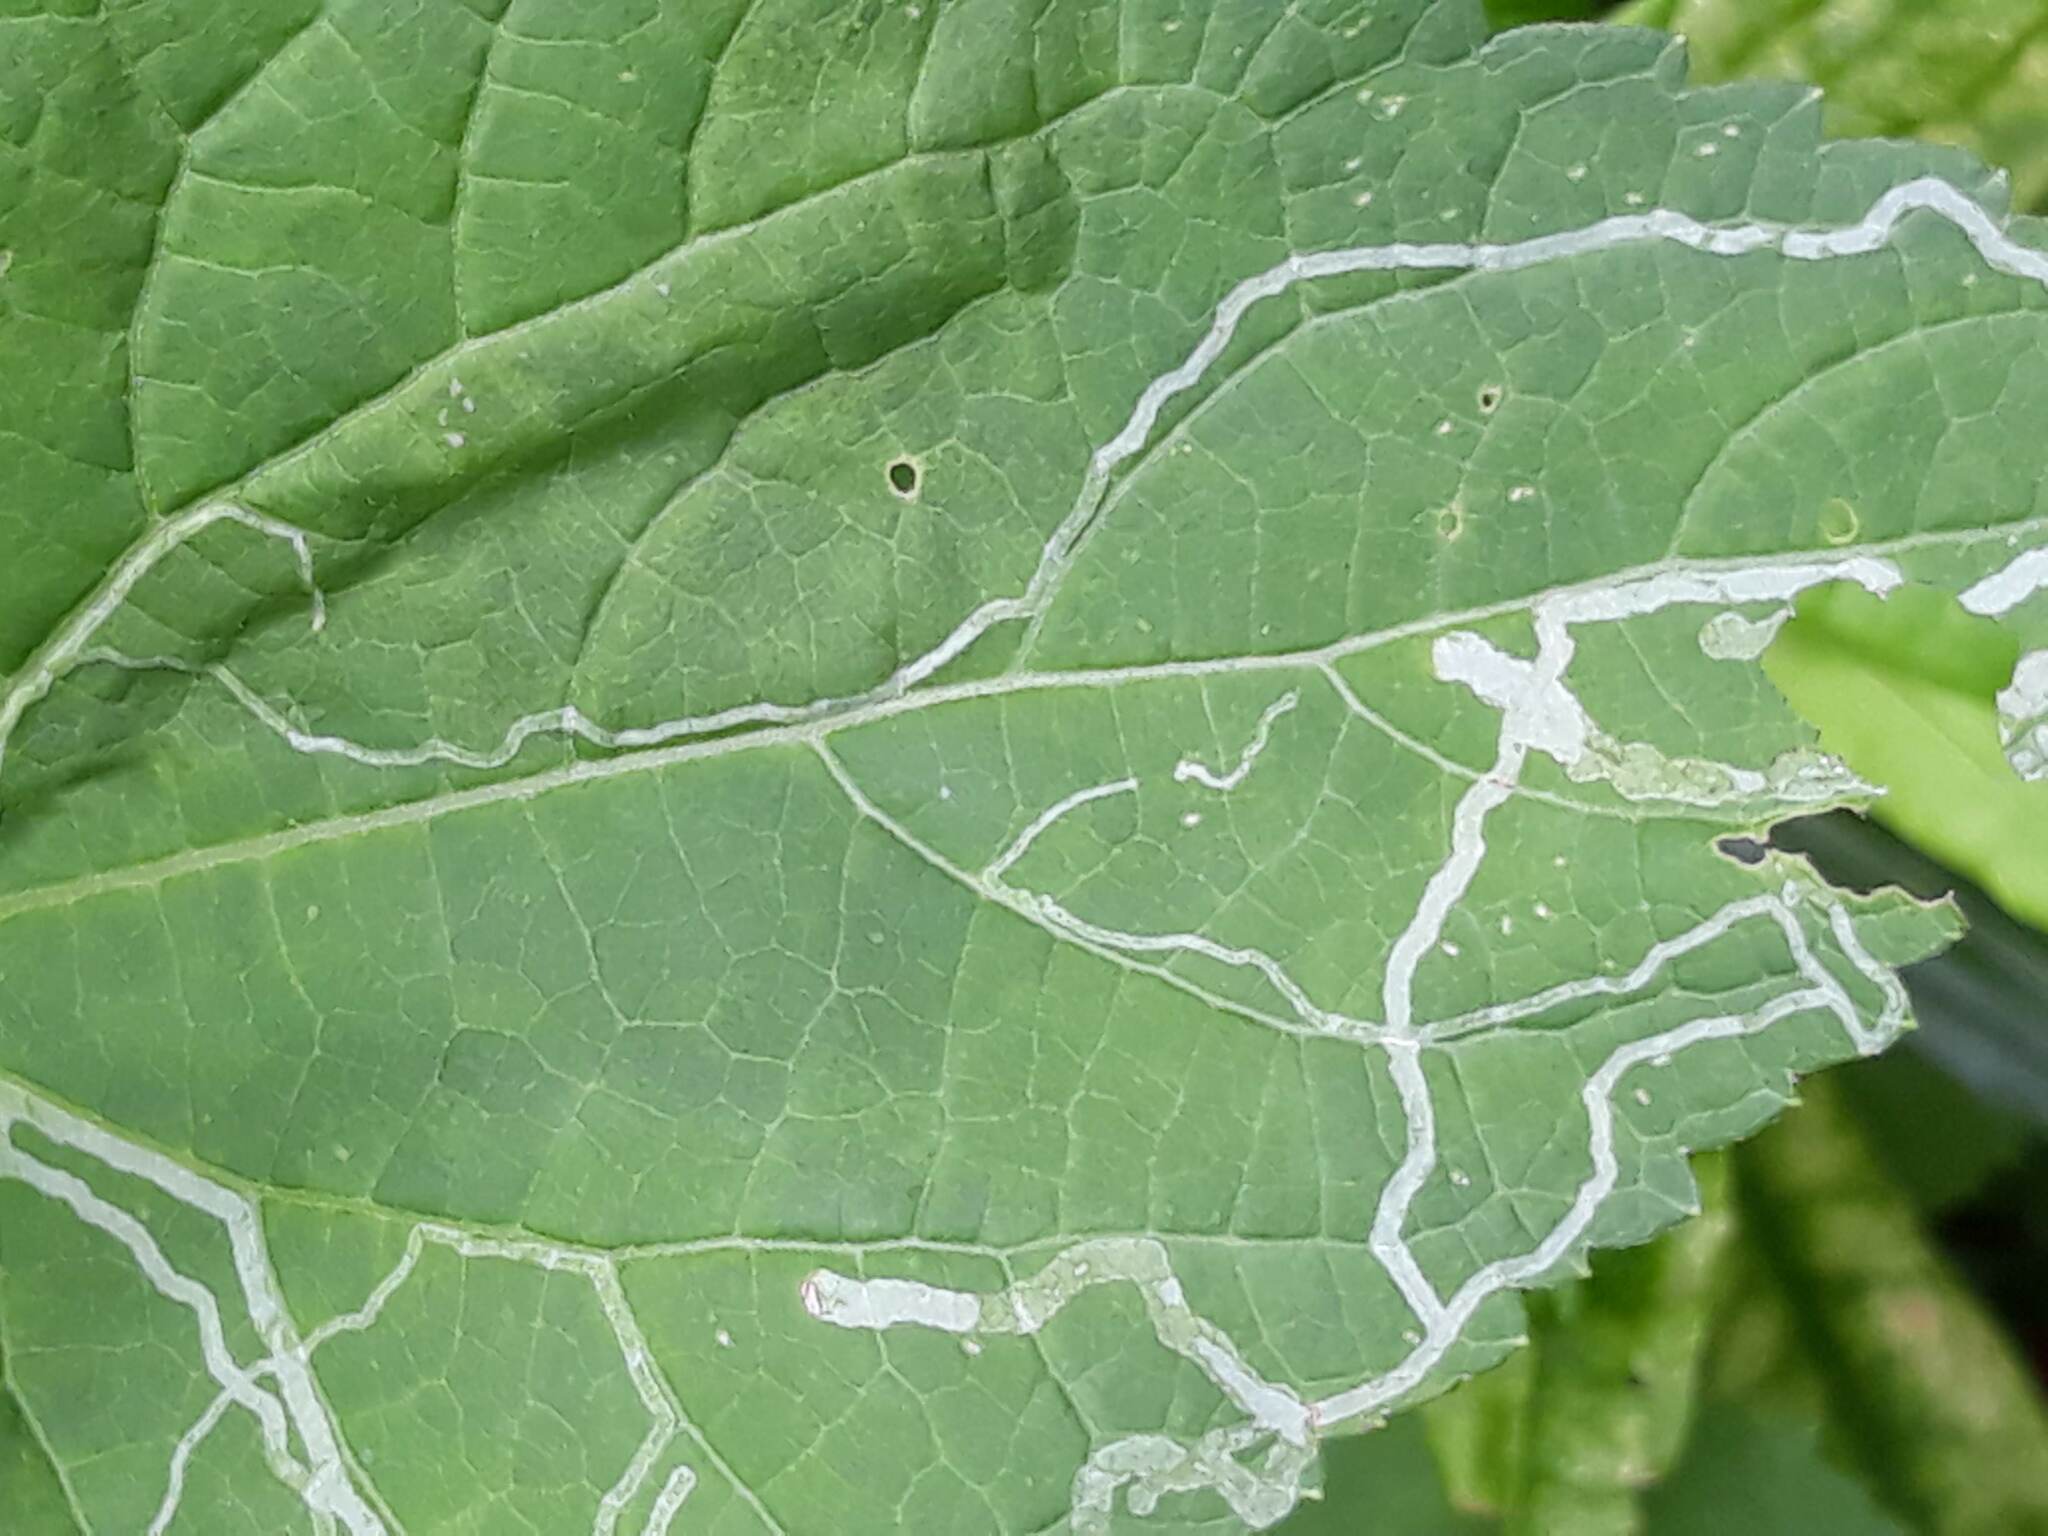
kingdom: Plantae
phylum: Tracheophyta
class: Magnoliopsida
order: Asterales
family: Asteraceae
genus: Ageratina
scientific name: Ageratina altissima
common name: White snakeroot
